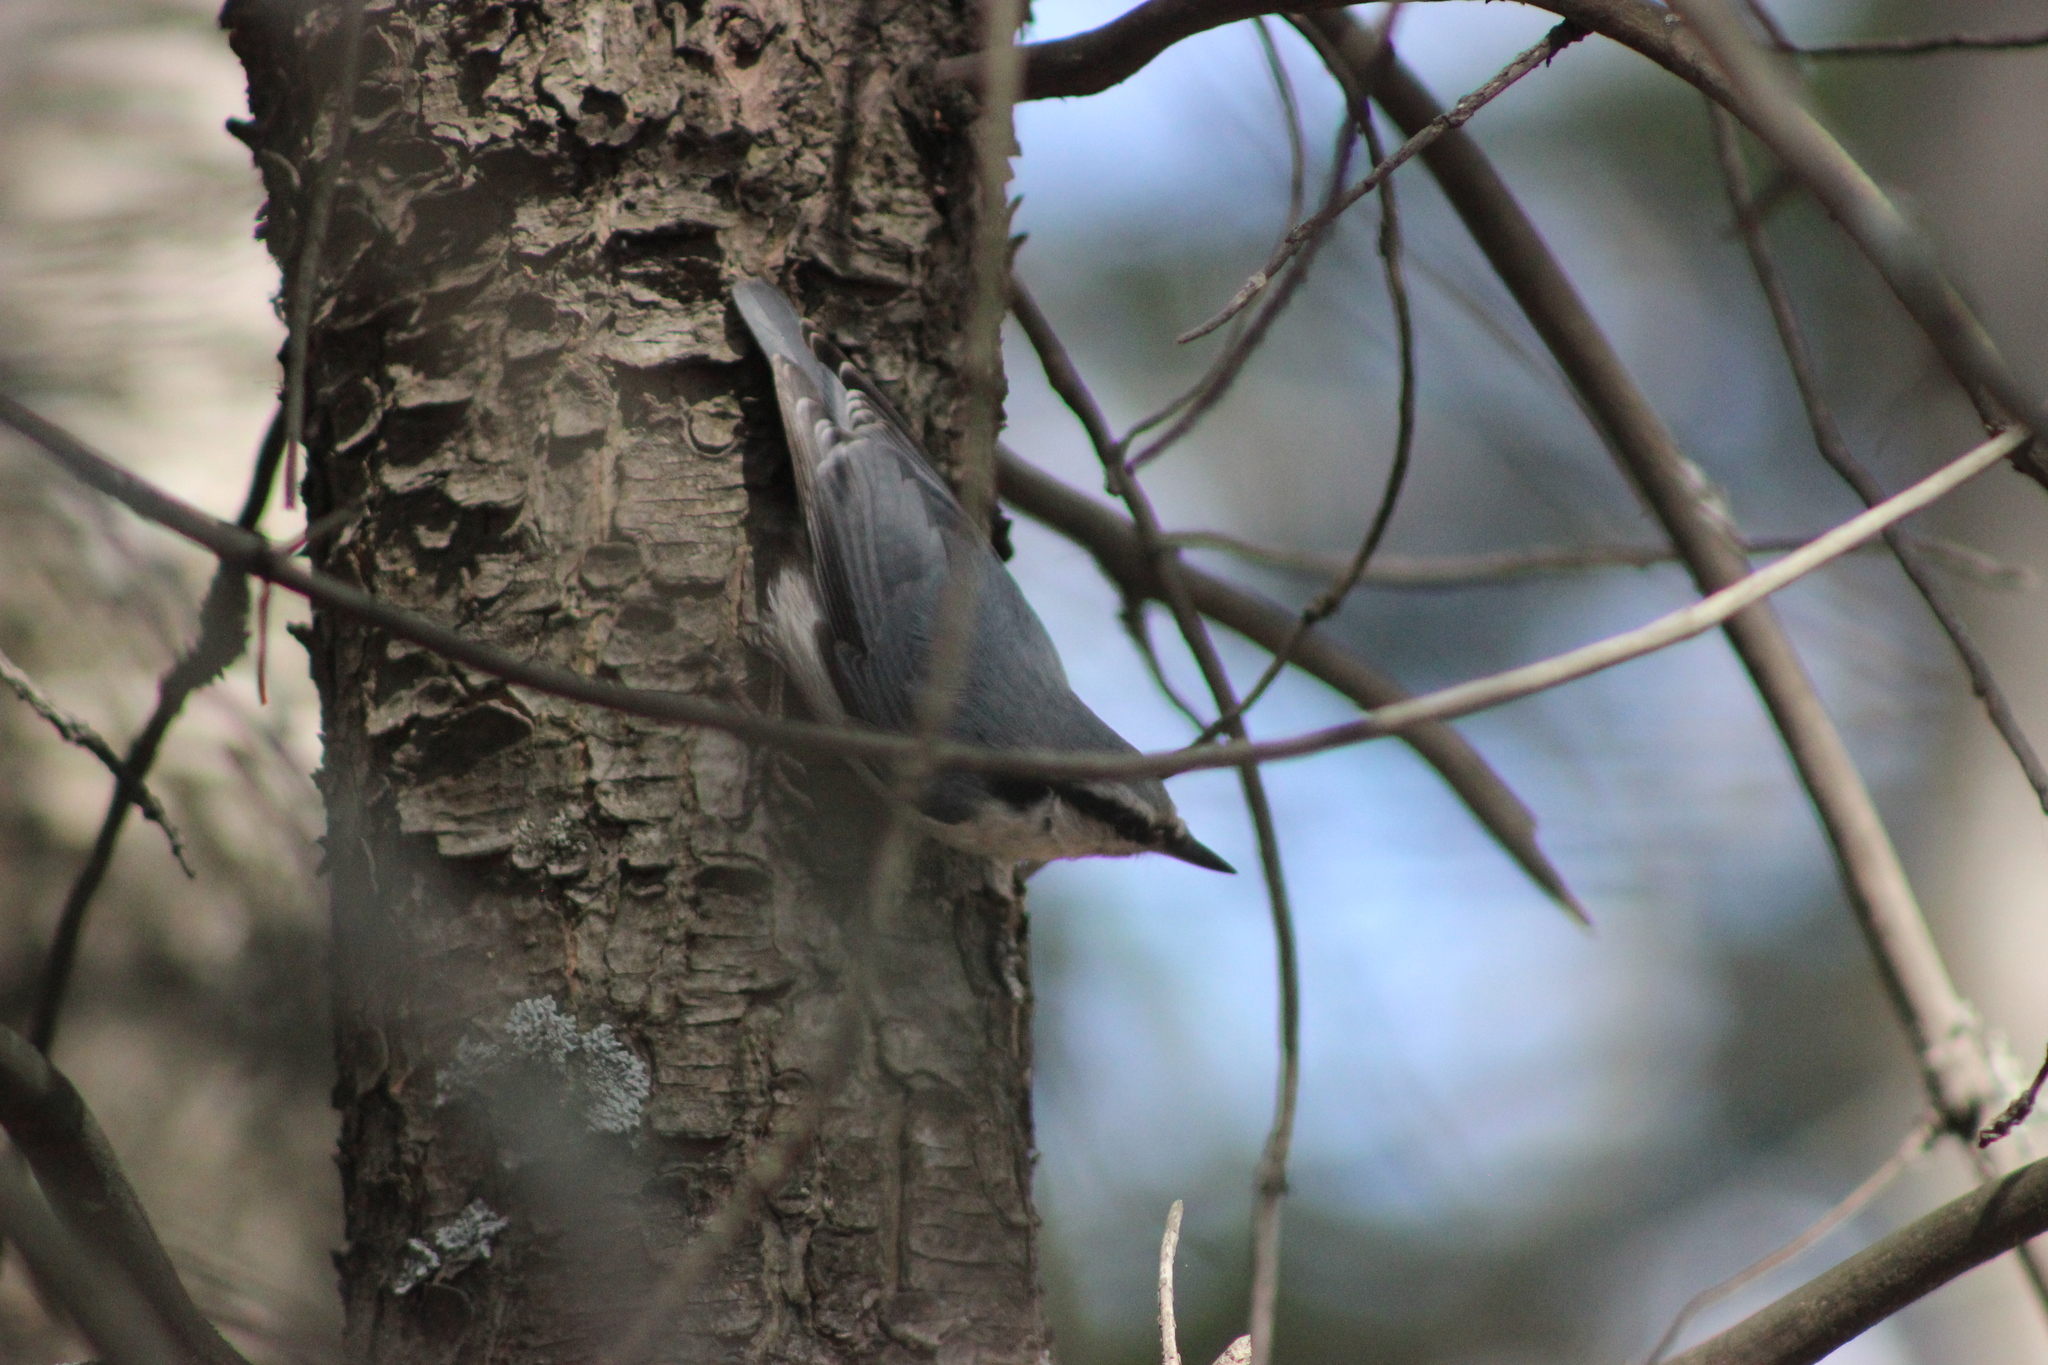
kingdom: Animalia
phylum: Chordata
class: Aves
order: Passeriformes
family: Sittidae
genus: Sitta
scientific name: Sitta europaea
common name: Eurasian nuthatch
